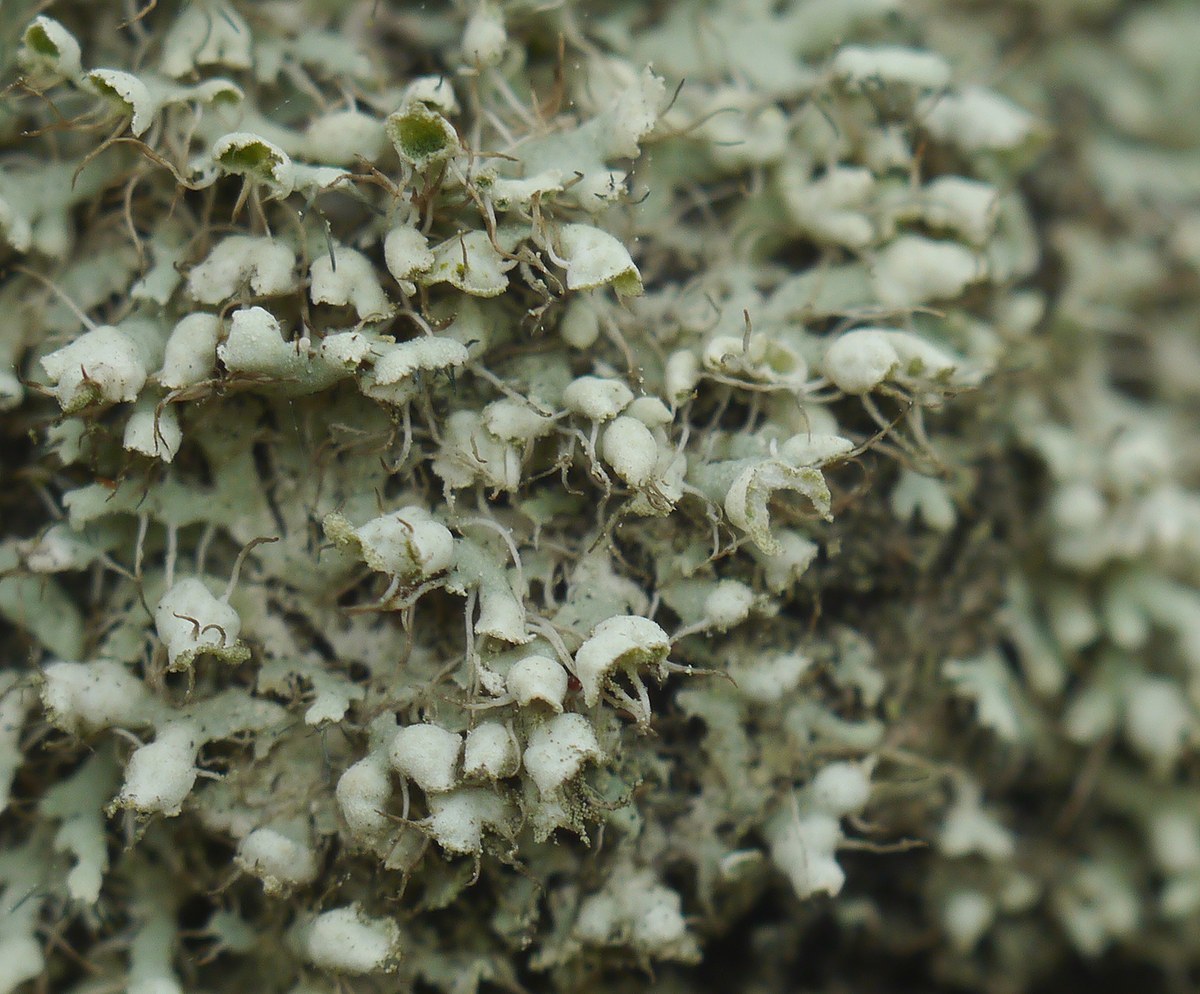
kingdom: Fungi
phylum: Ascomycota
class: Lecanoromycetes
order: Caliciales
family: Physciaceae
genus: Physcia
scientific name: Physcia adscendens
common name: Hooded rosette lichen
